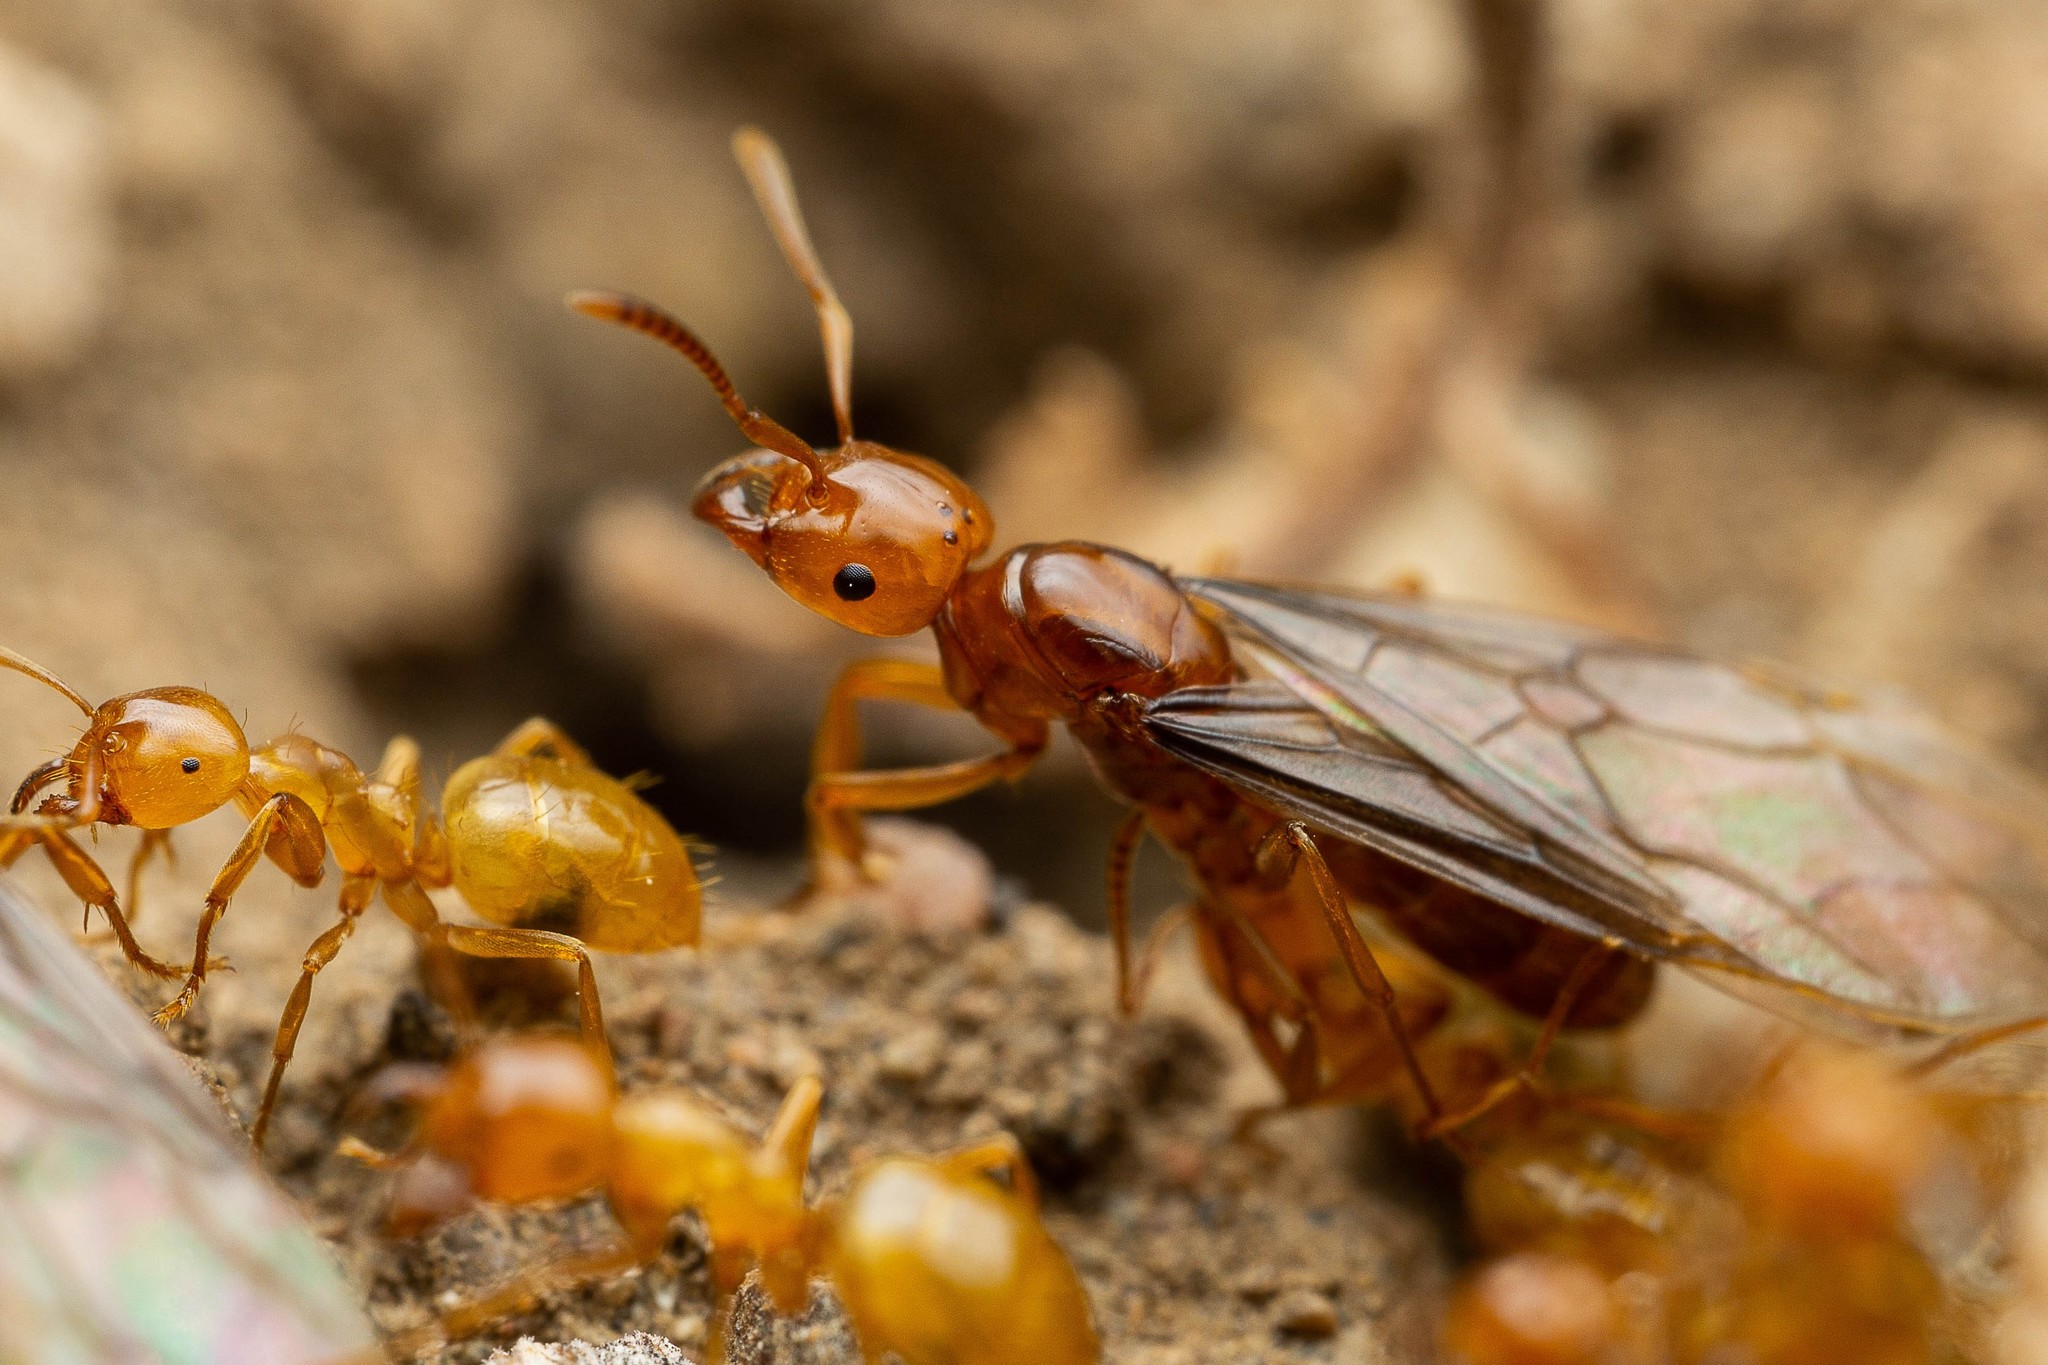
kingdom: Animalia
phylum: Arthropoda
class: Insecta
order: Hymenoptera
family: Formicidae
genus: Lasius
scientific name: Lasius arizonicus
